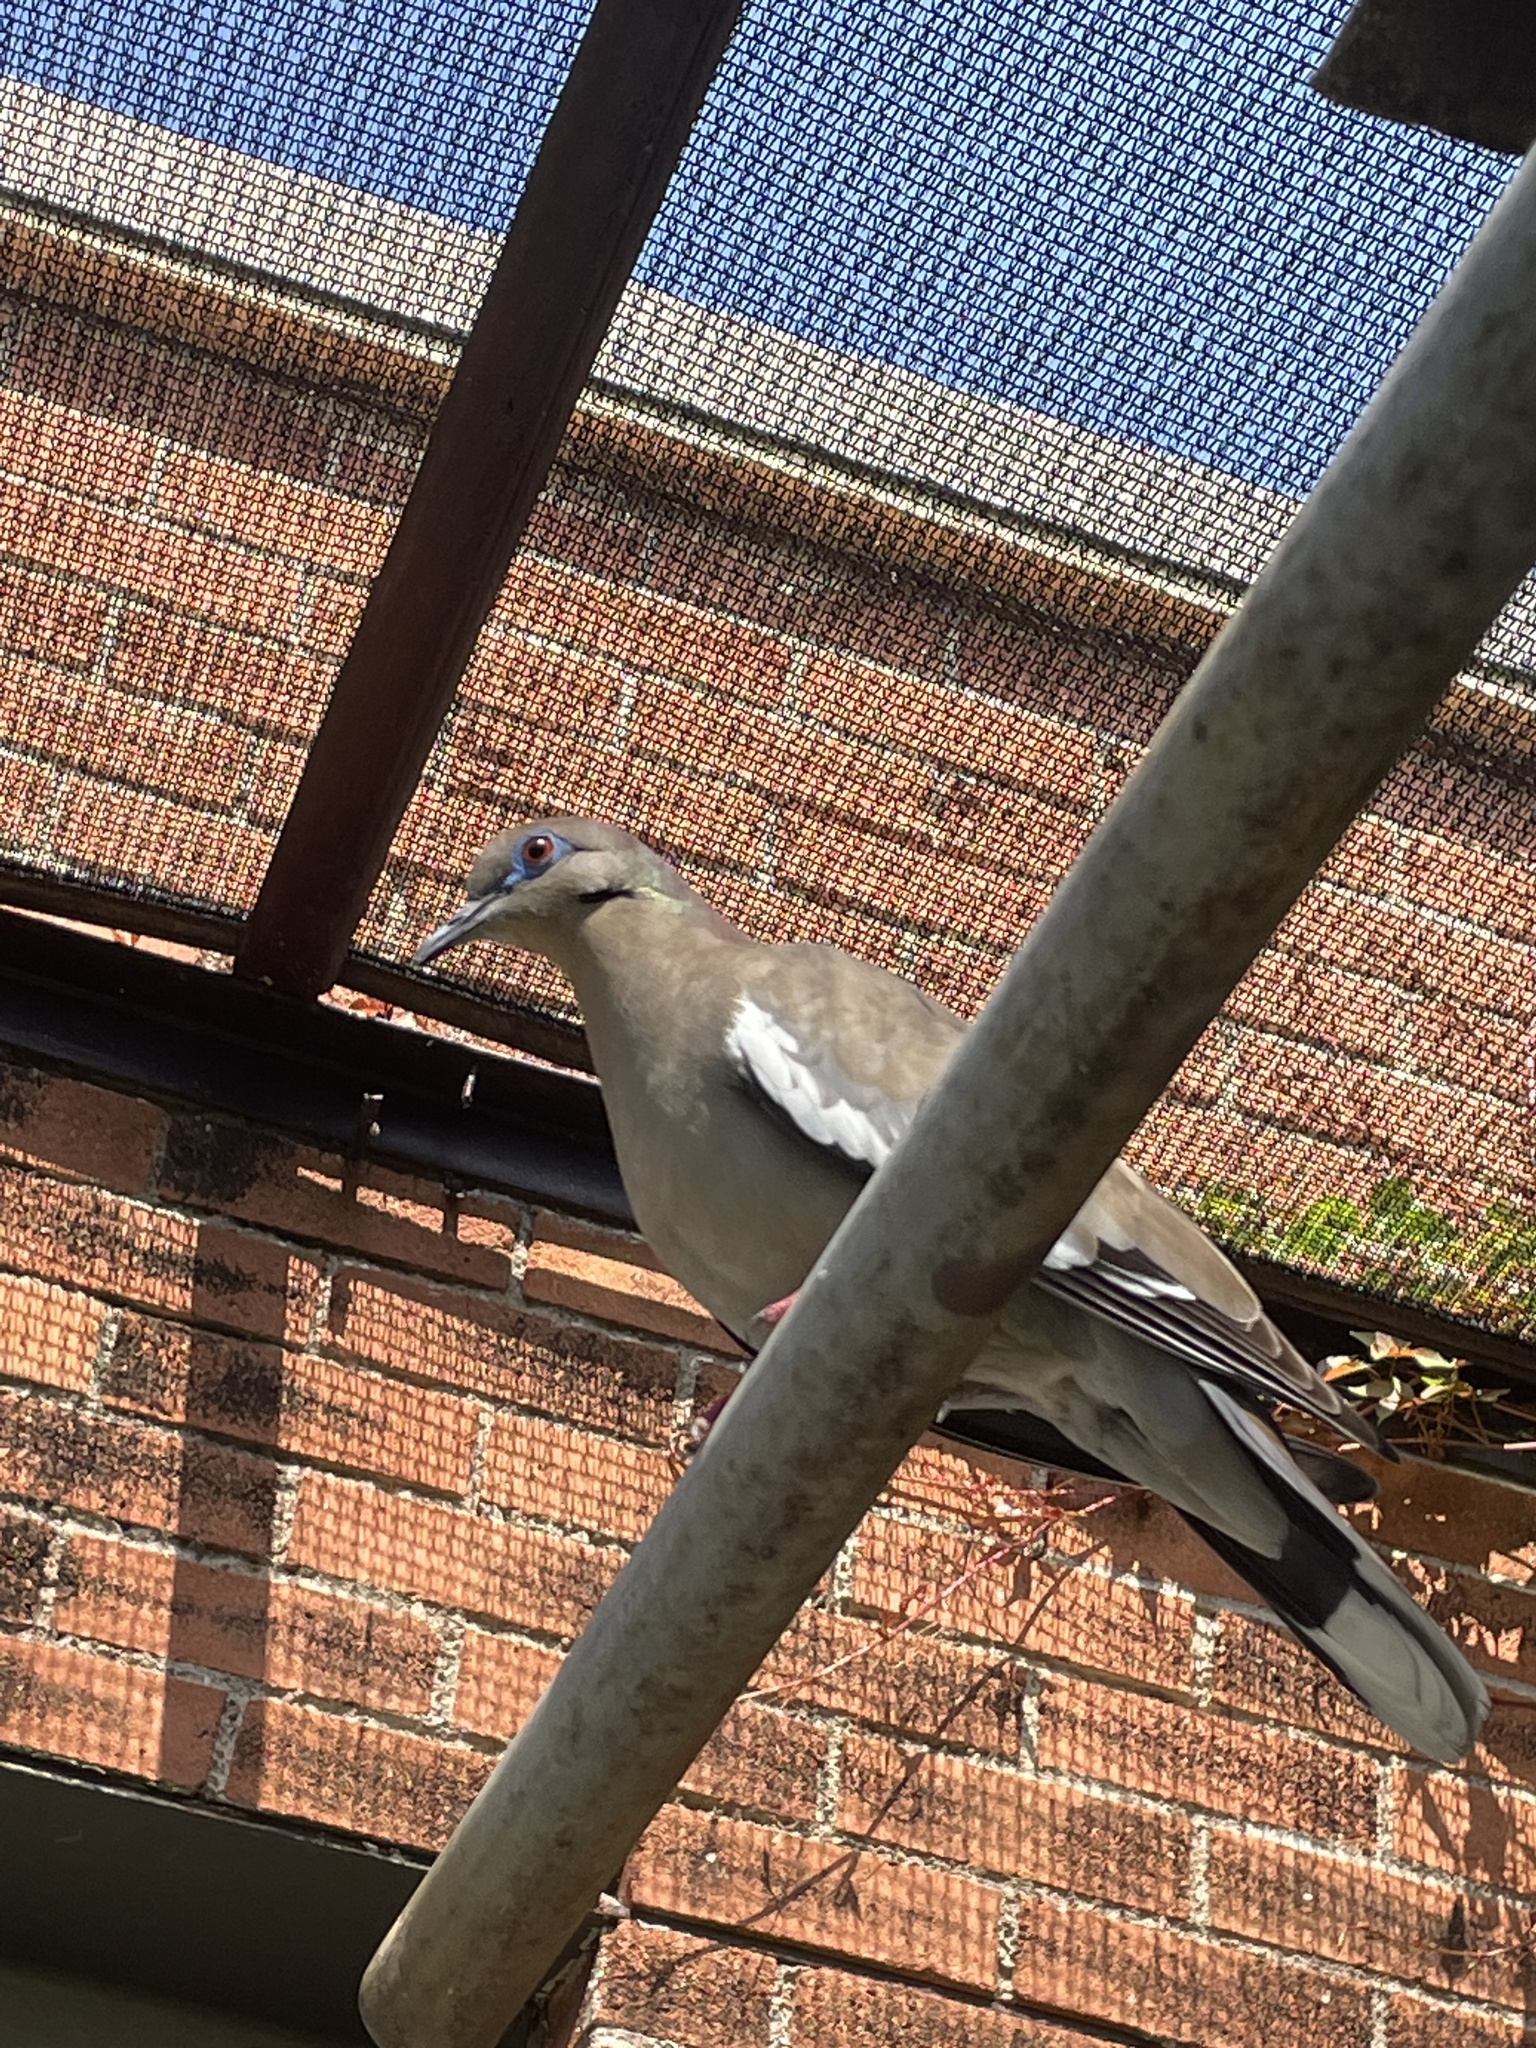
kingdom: Animalia
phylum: Chordata
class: Aves
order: Columbiformes
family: Columbidae
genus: Zenaida
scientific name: Zenaida asiatica
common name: White-winged dove
